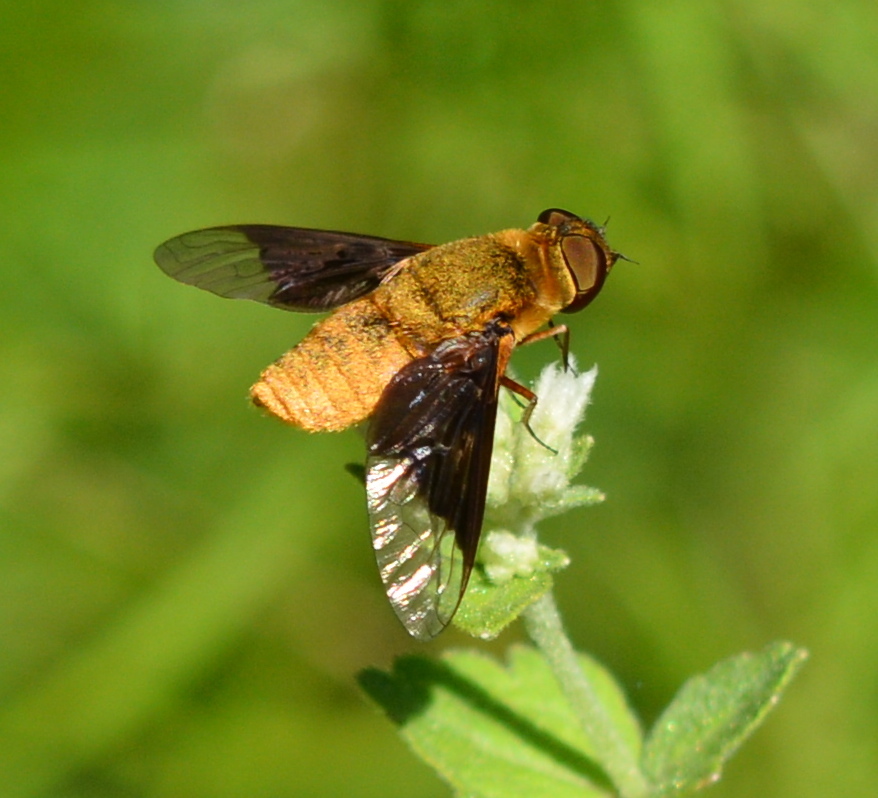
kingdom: Animalia
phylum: Arthropoda
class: Insecta
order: Diptera
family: Bombyliidae
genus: Chrysanthrax
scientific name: Chrysanthrax cypris
